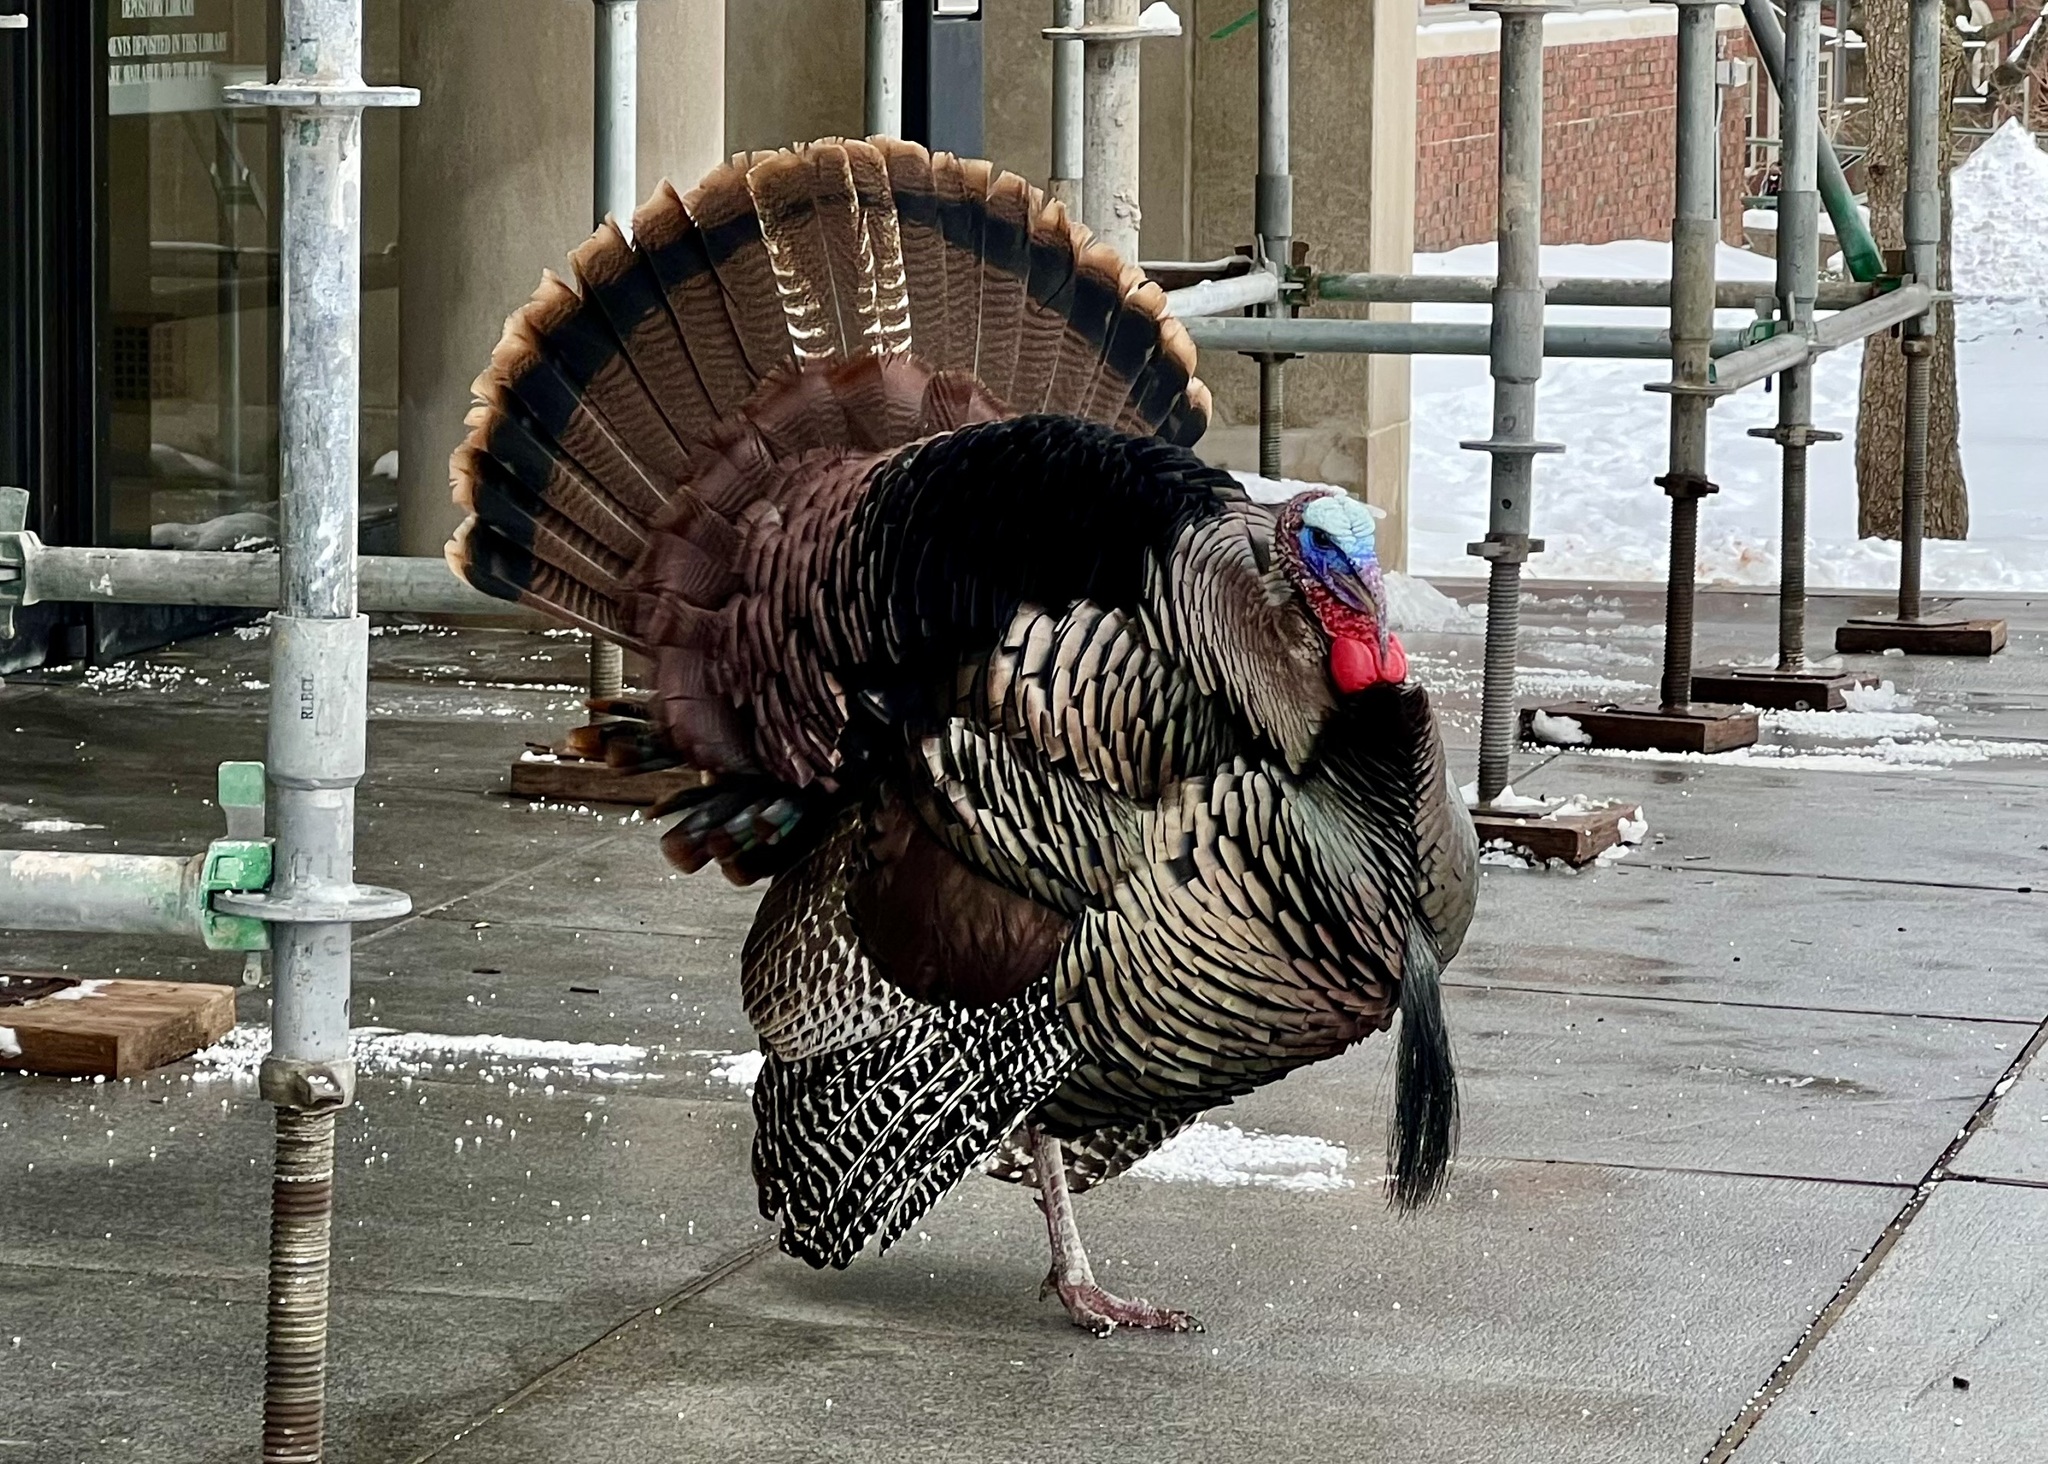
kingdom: Animalia
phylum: Chordata
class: Aves
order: Galliformes
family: Phasianidae
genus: Meleagris
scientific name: Meleagris gallopavo
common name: Wild turkey
